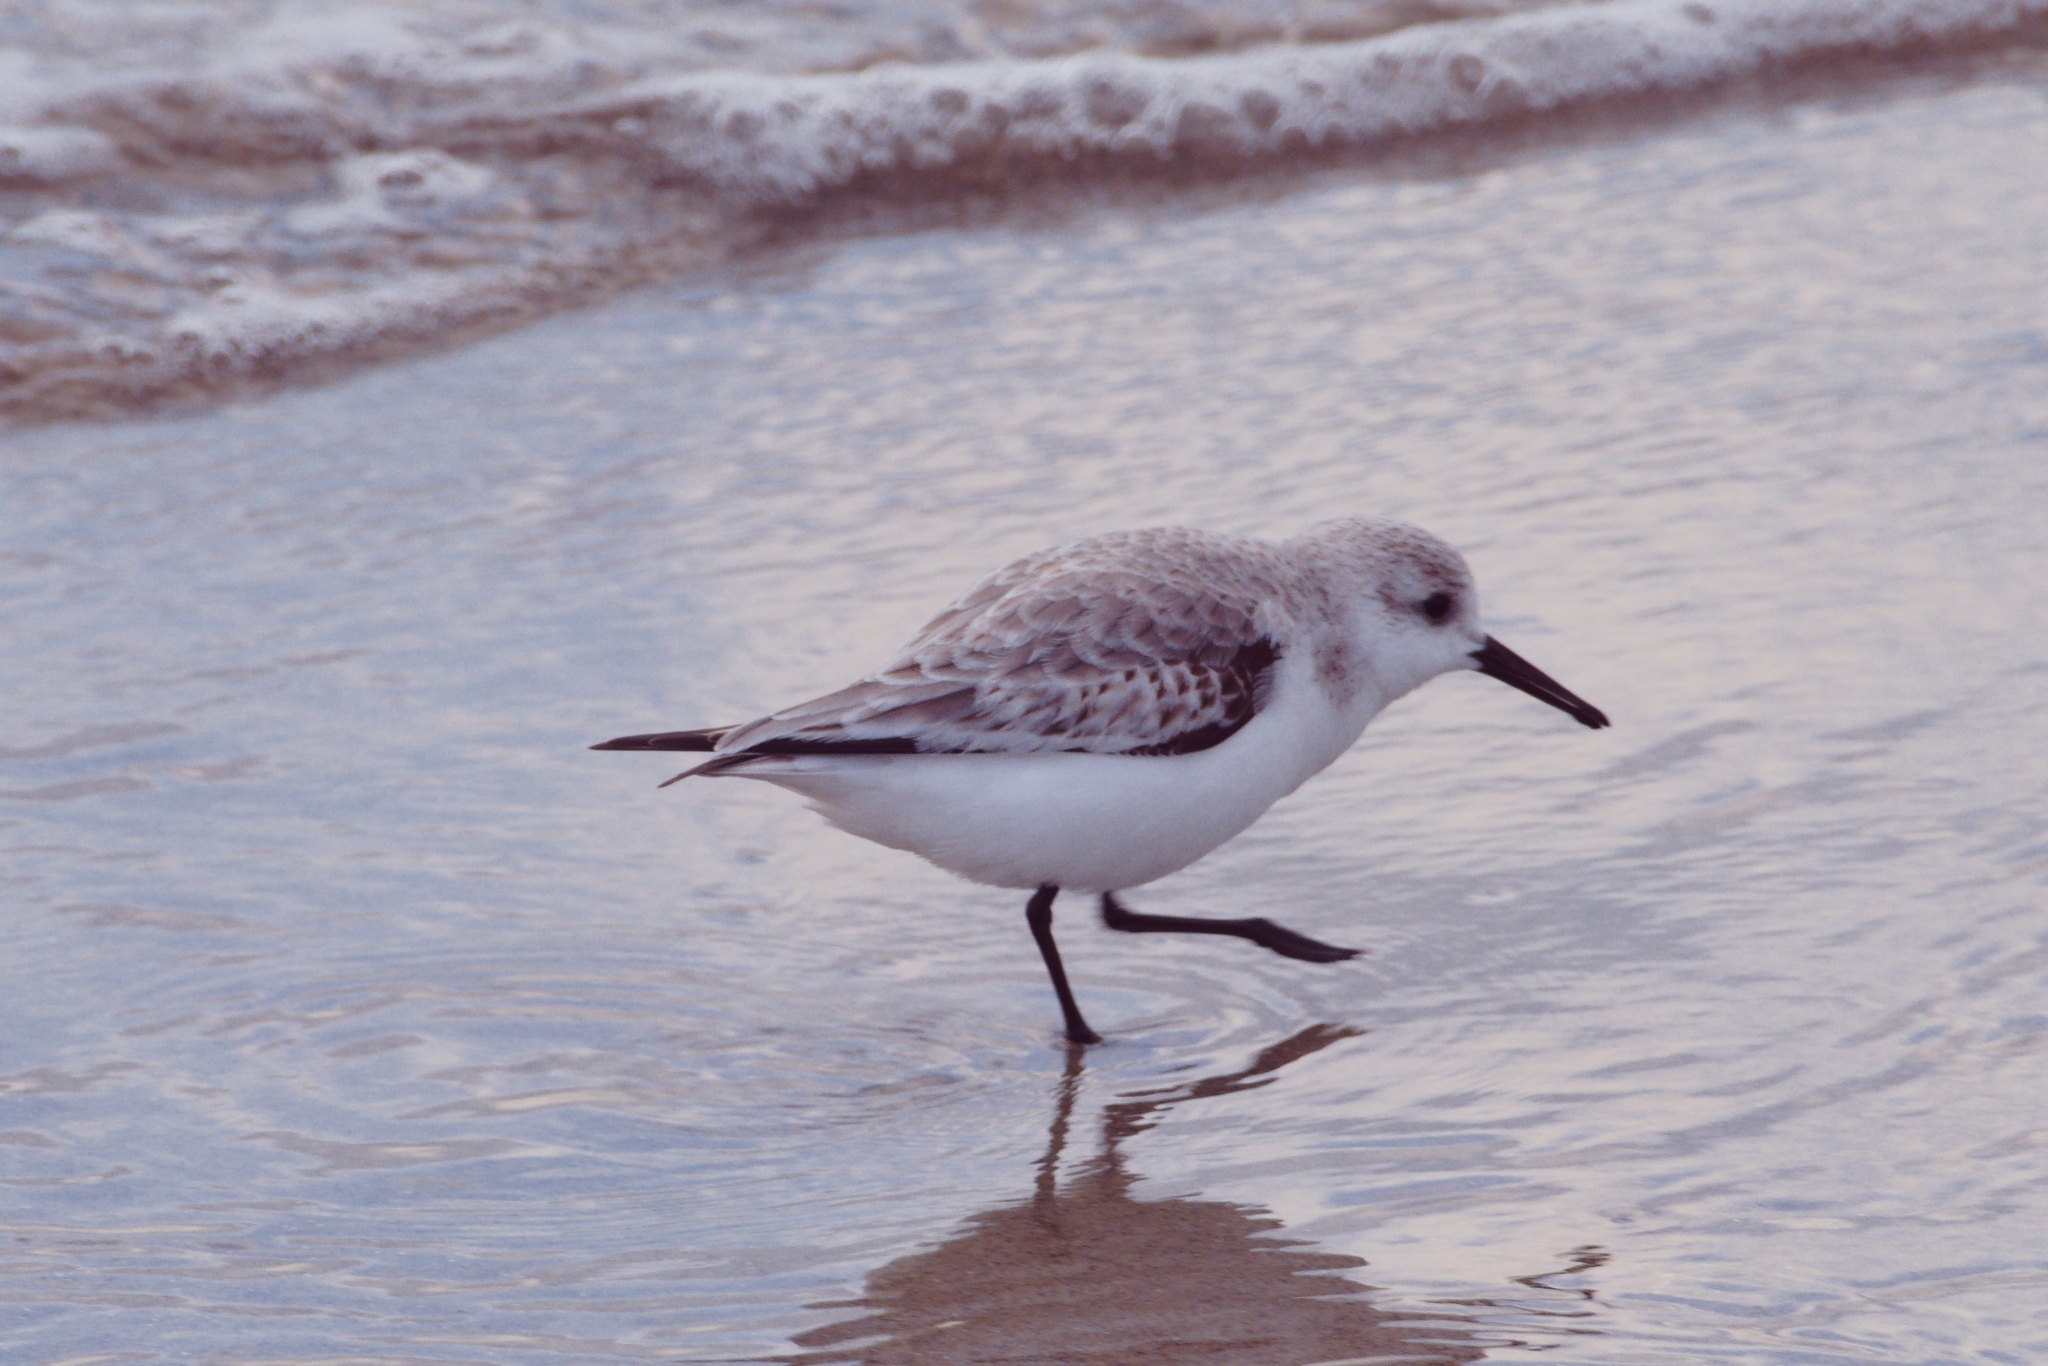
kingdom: Animalia
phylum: Chordata
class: Aves
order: Charadriiformes
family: Scolopacidae
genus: Calidris
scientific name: Calidris alba
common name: Sanderling
